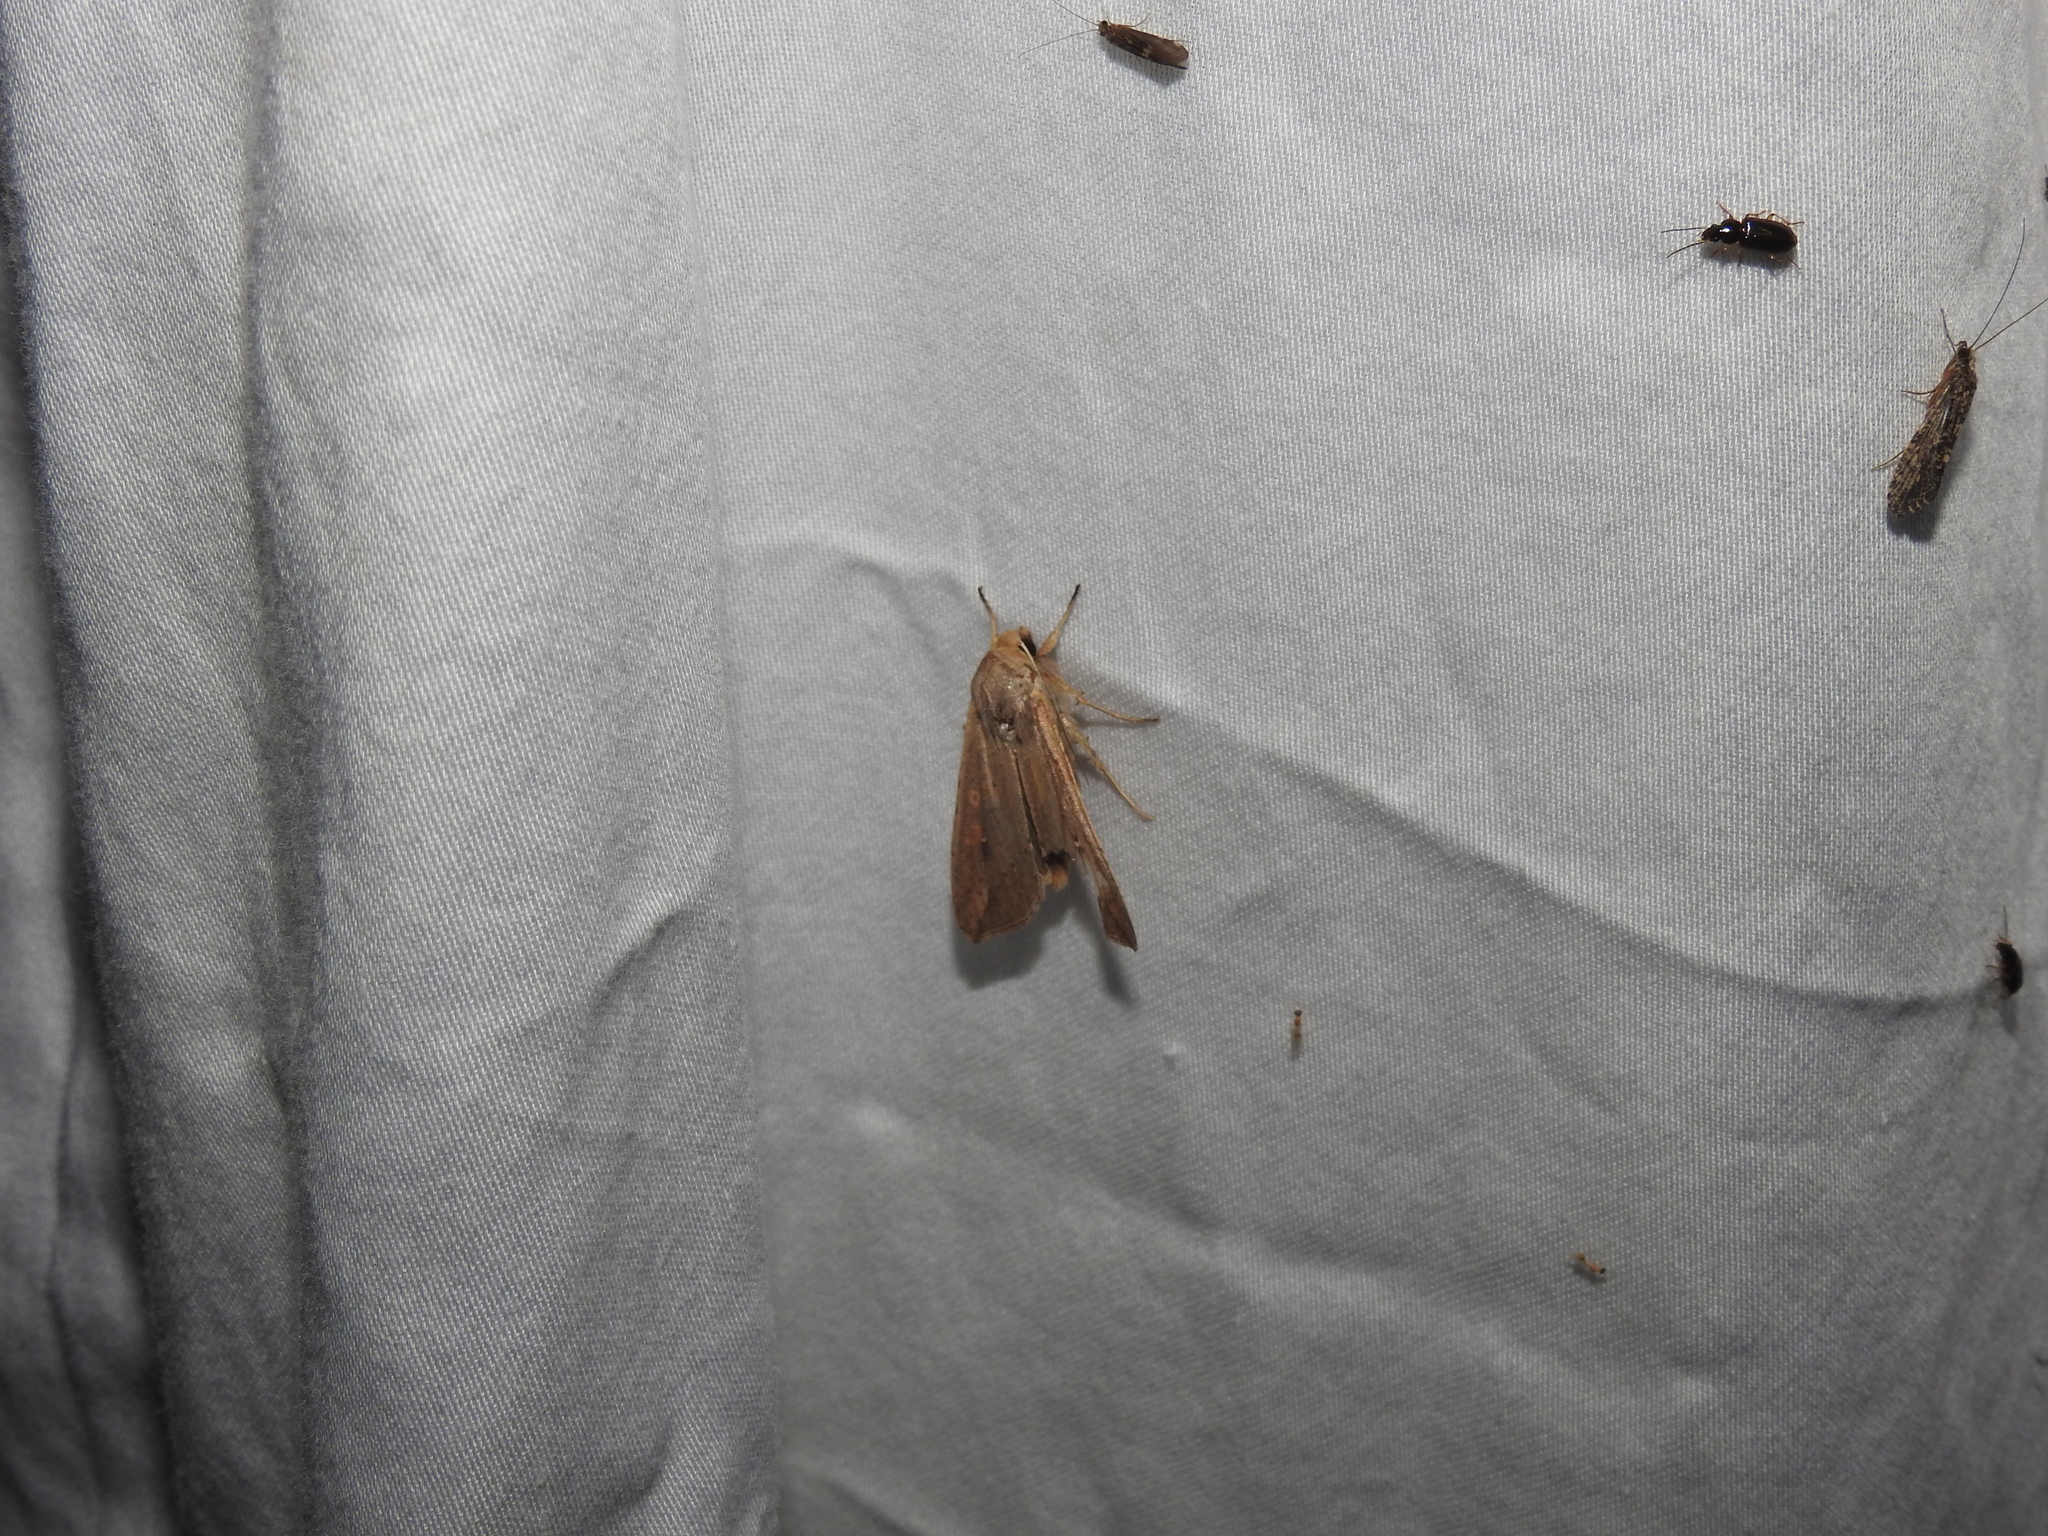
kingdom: Animalia
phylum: Arthropoda
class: Insecta
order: Lepidoptera
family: Noctuidae
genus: Mythimna
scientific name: Mythimna unipuncta
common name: White-speck
